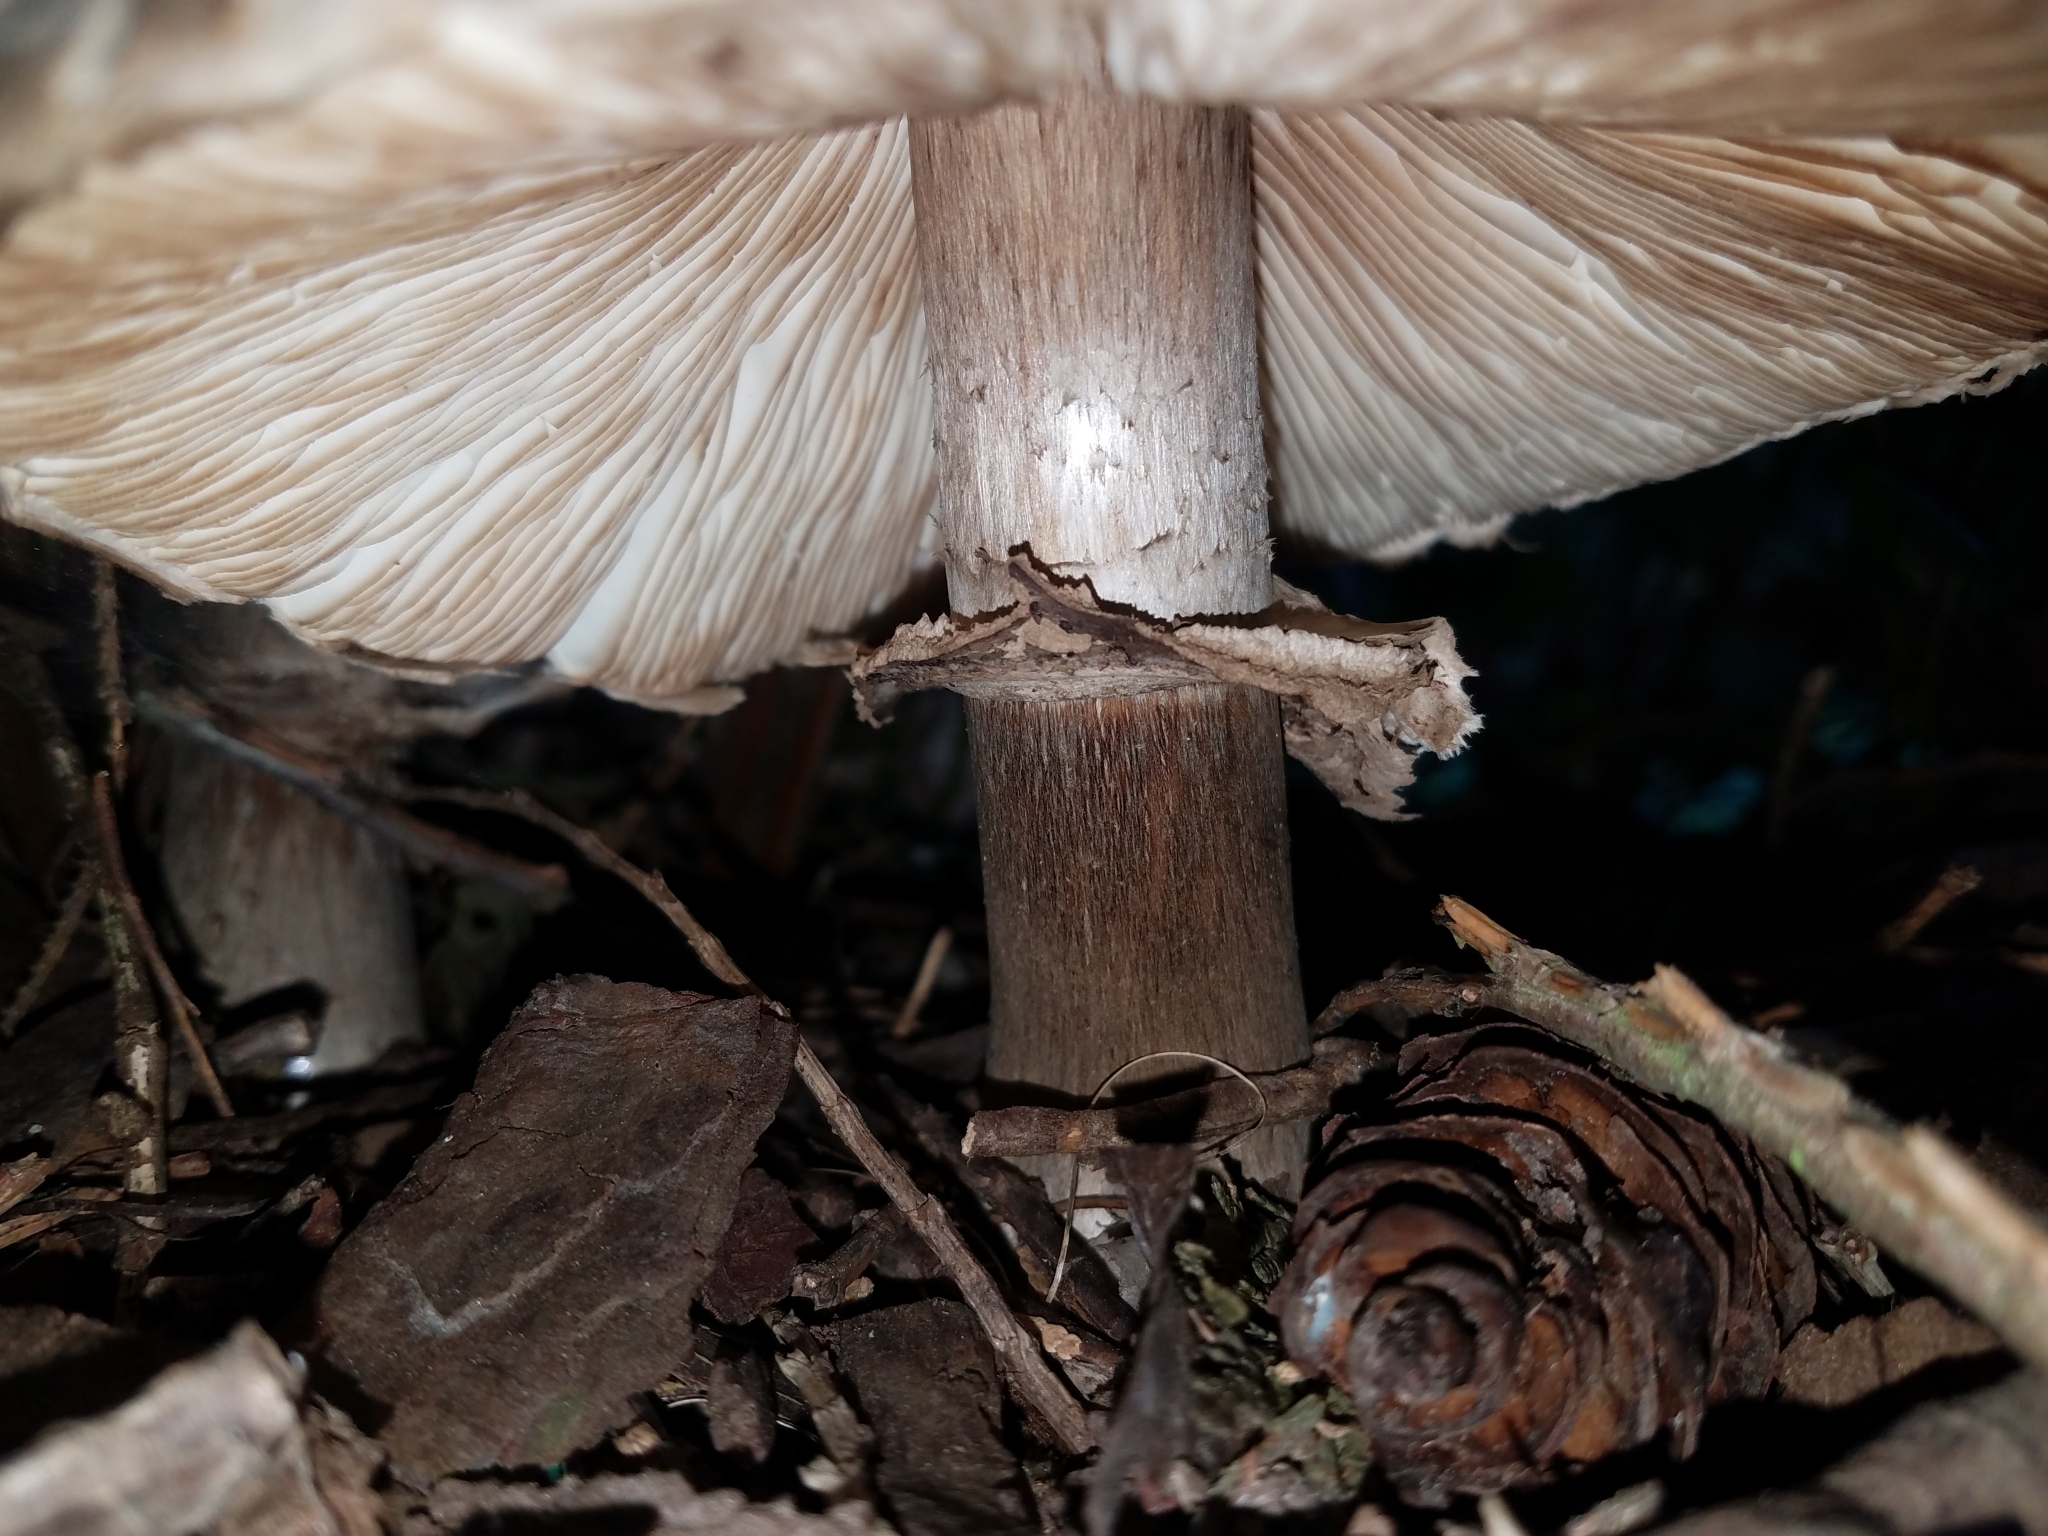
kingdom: Fungi
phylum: Basidiomycota
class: Agaricomycetes
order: Agaricales
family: Agaricaceae
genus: Chlorophyllum
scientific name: Chlorophyllum brunneum
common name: Brown parasol
